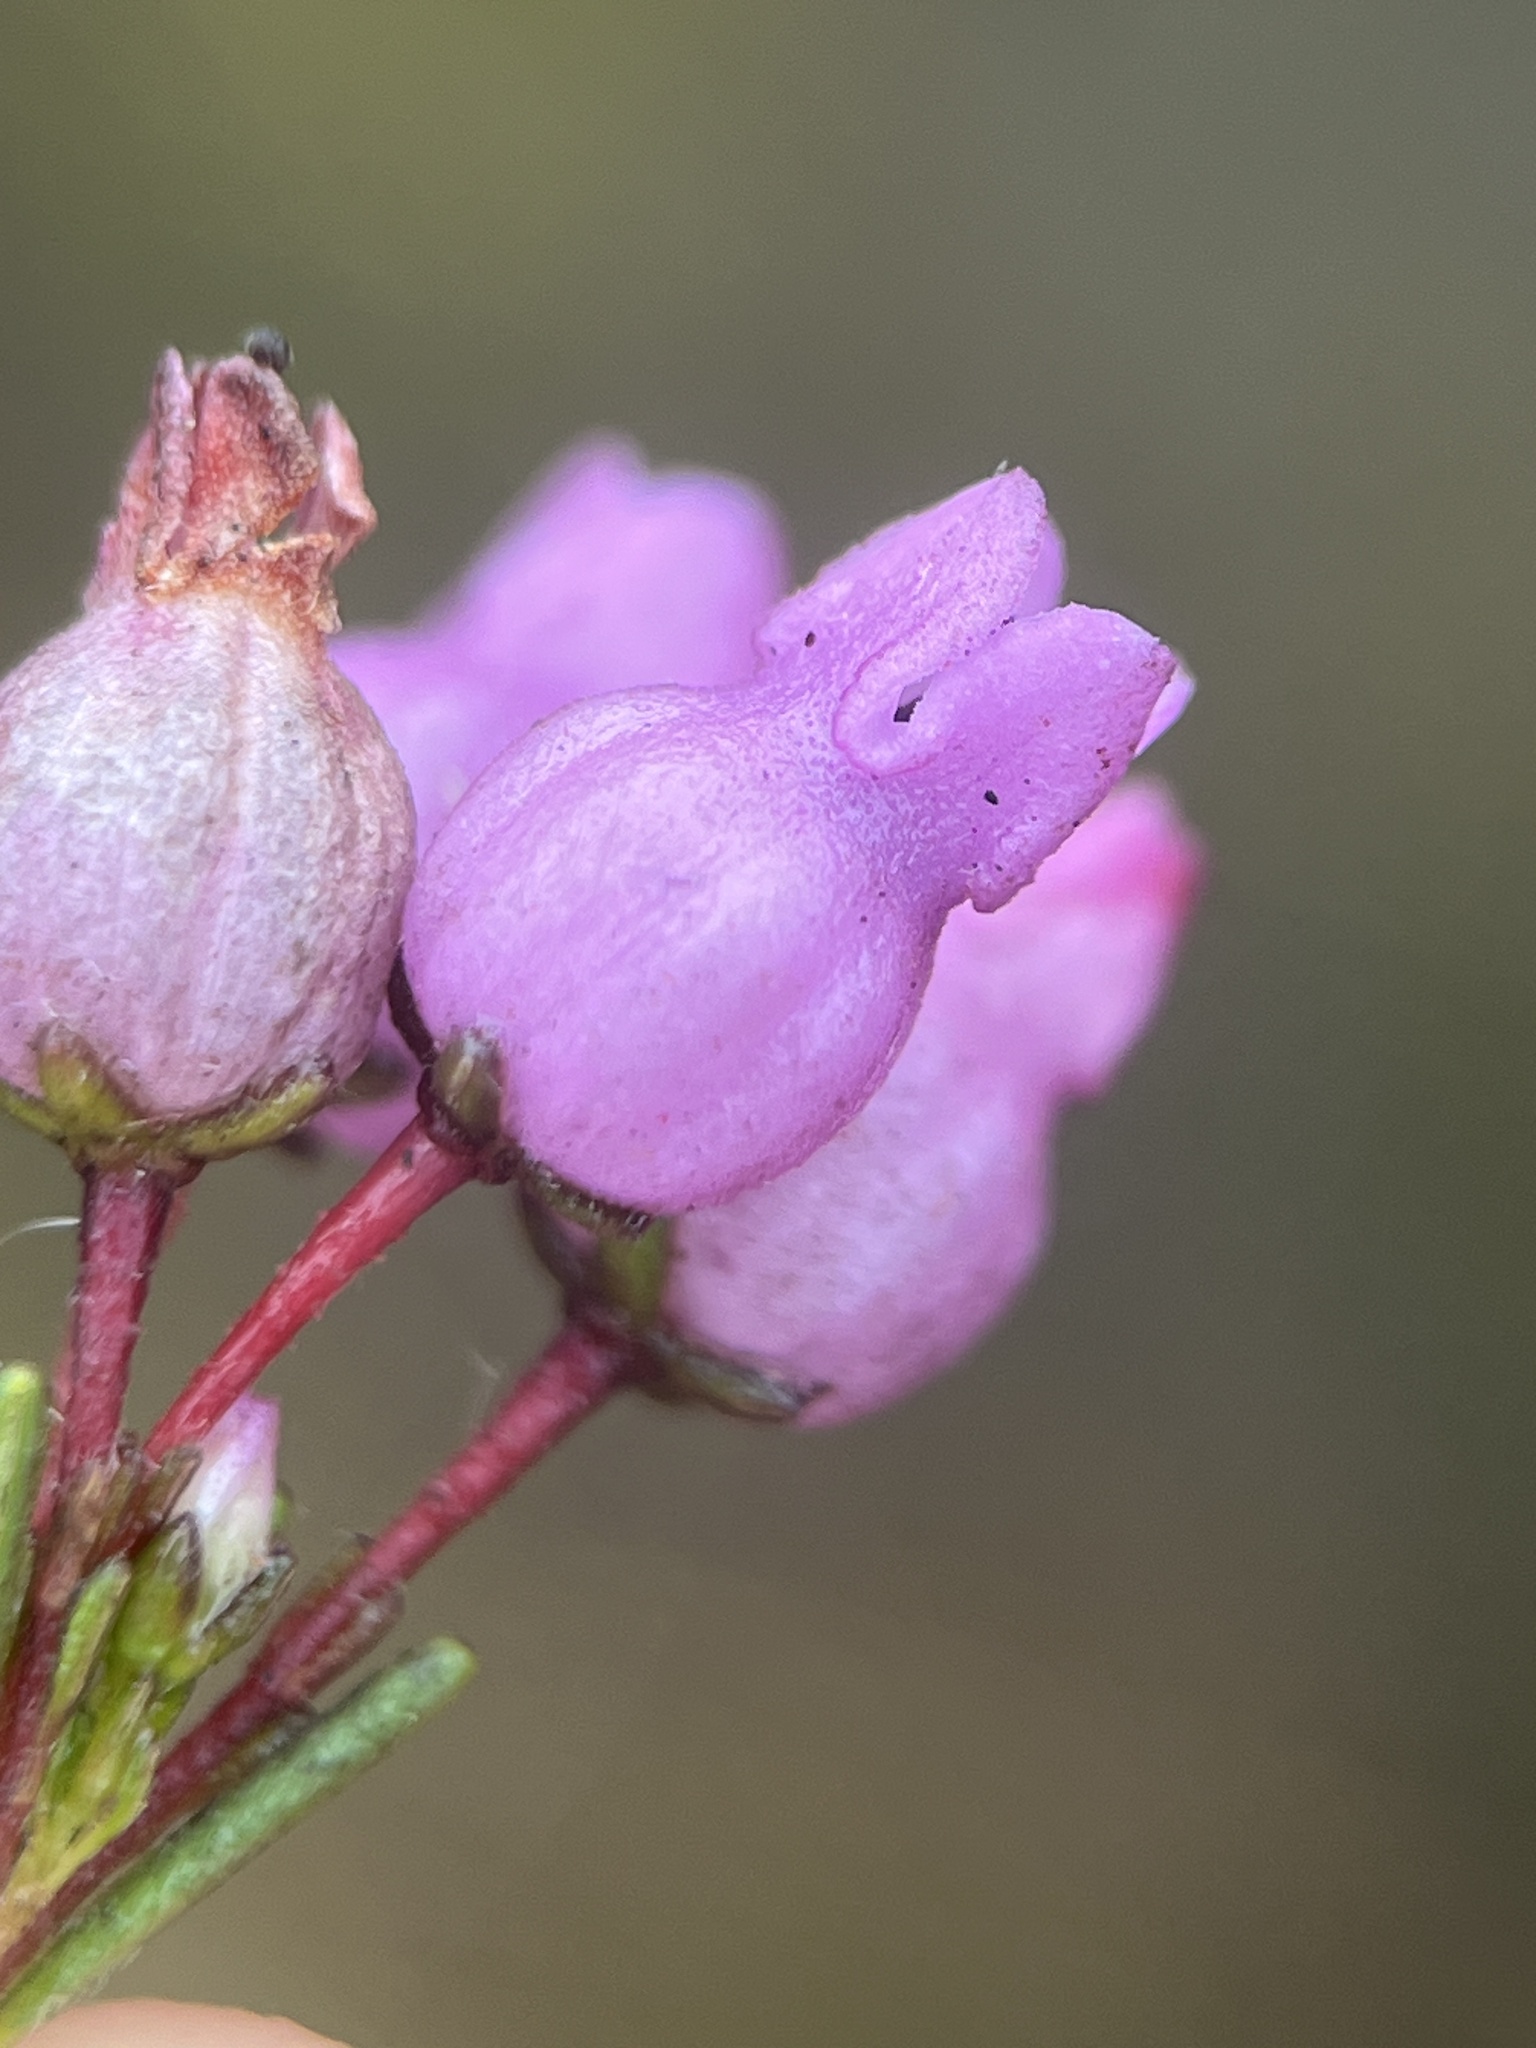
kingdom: Plantae
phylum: Tracheophyta
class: Magnoliopsida
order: Ericales
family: Ericaceae
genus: Erica
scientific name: Erica obliqua
